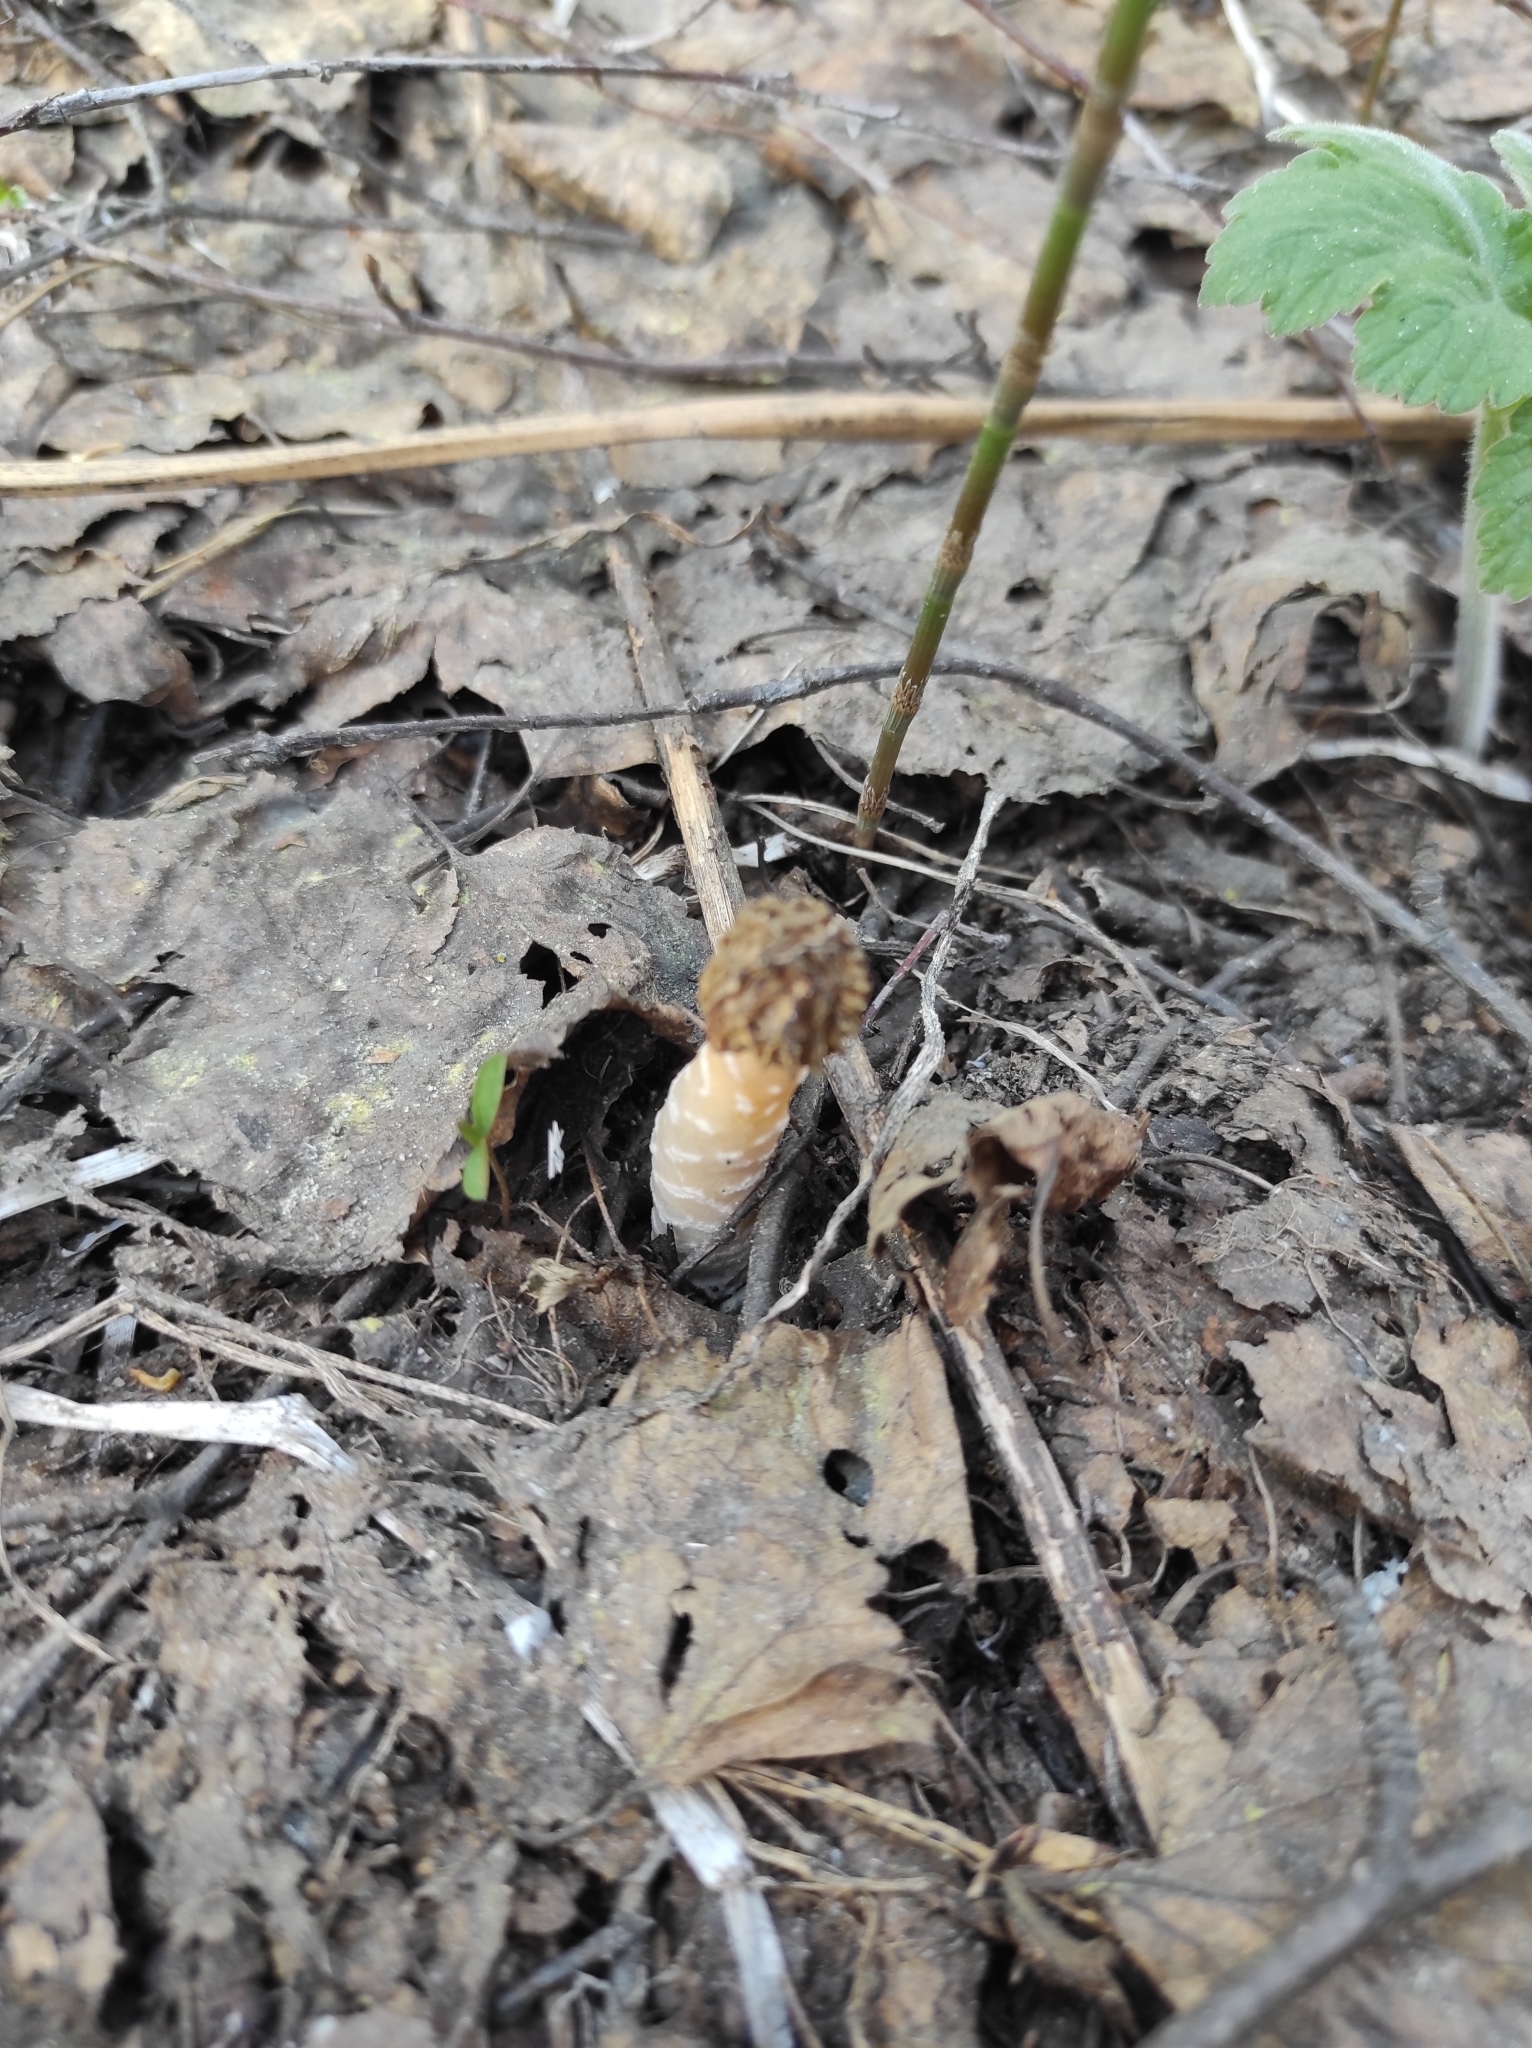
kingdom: Fungi
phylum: Ascomycota
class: Pezizomycetes
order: Pezizales
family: Morchellaceae
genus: Verpa
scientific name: Verpa bohemica
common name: Wrinkled thimble morel
